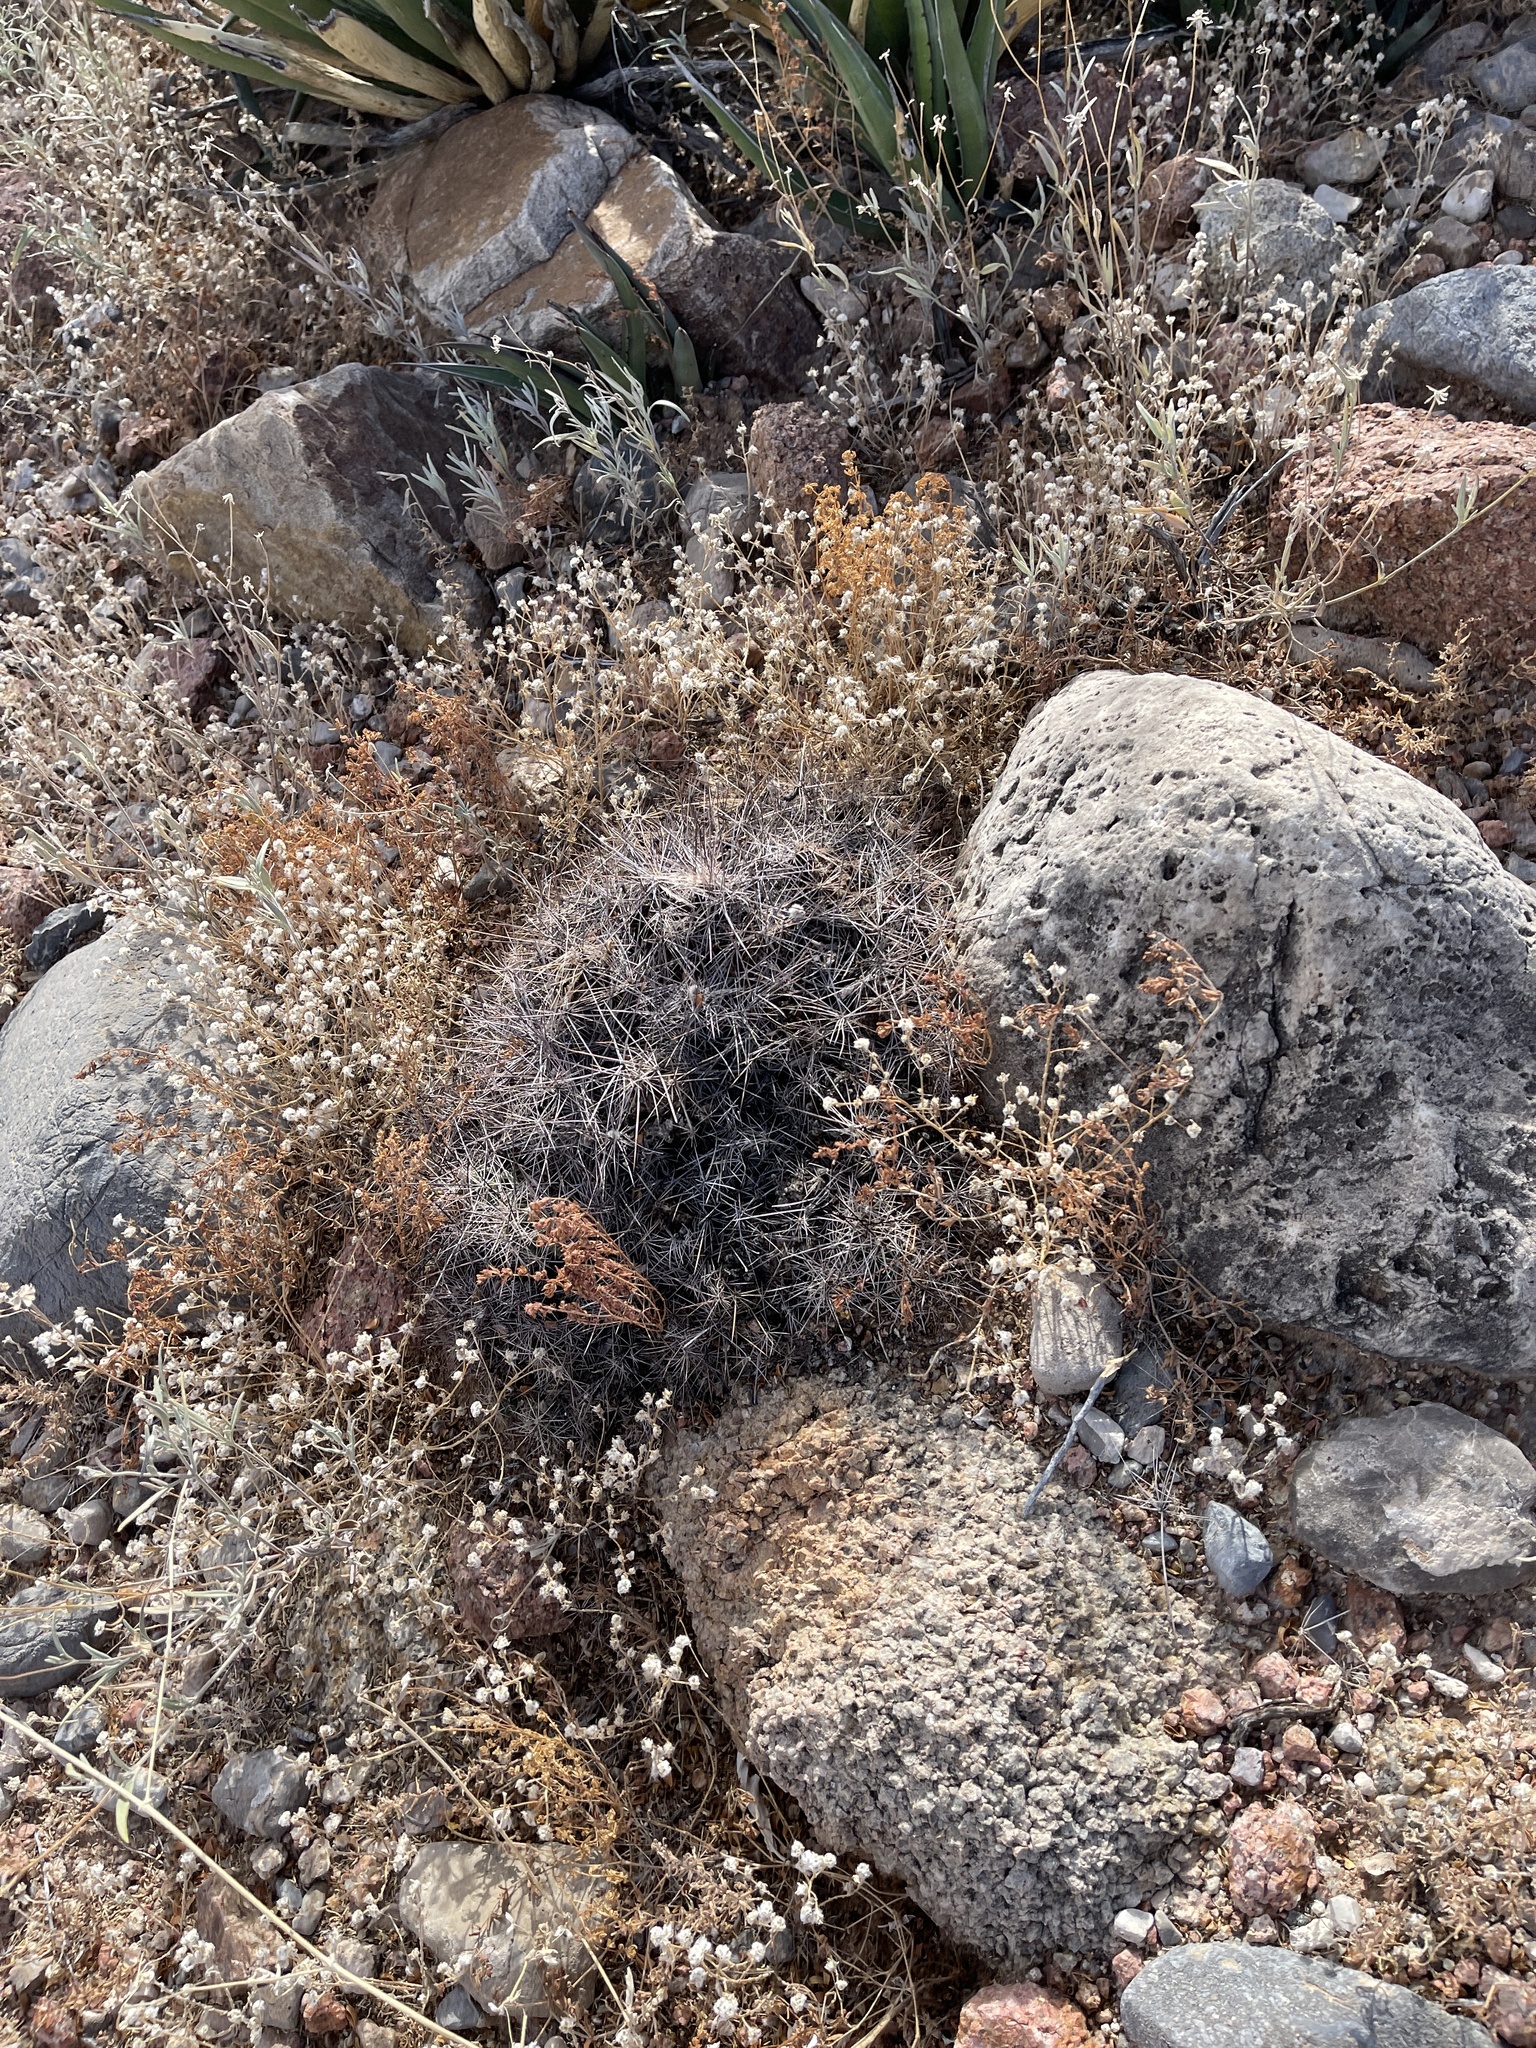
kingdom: Plantae
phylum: Tracheophyta
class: Magnoliopsida
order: Caryophyllales
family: Cactaceae
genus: Coryphantha
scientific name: Coryphantha macromeris
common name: Nipple beehive cactus
